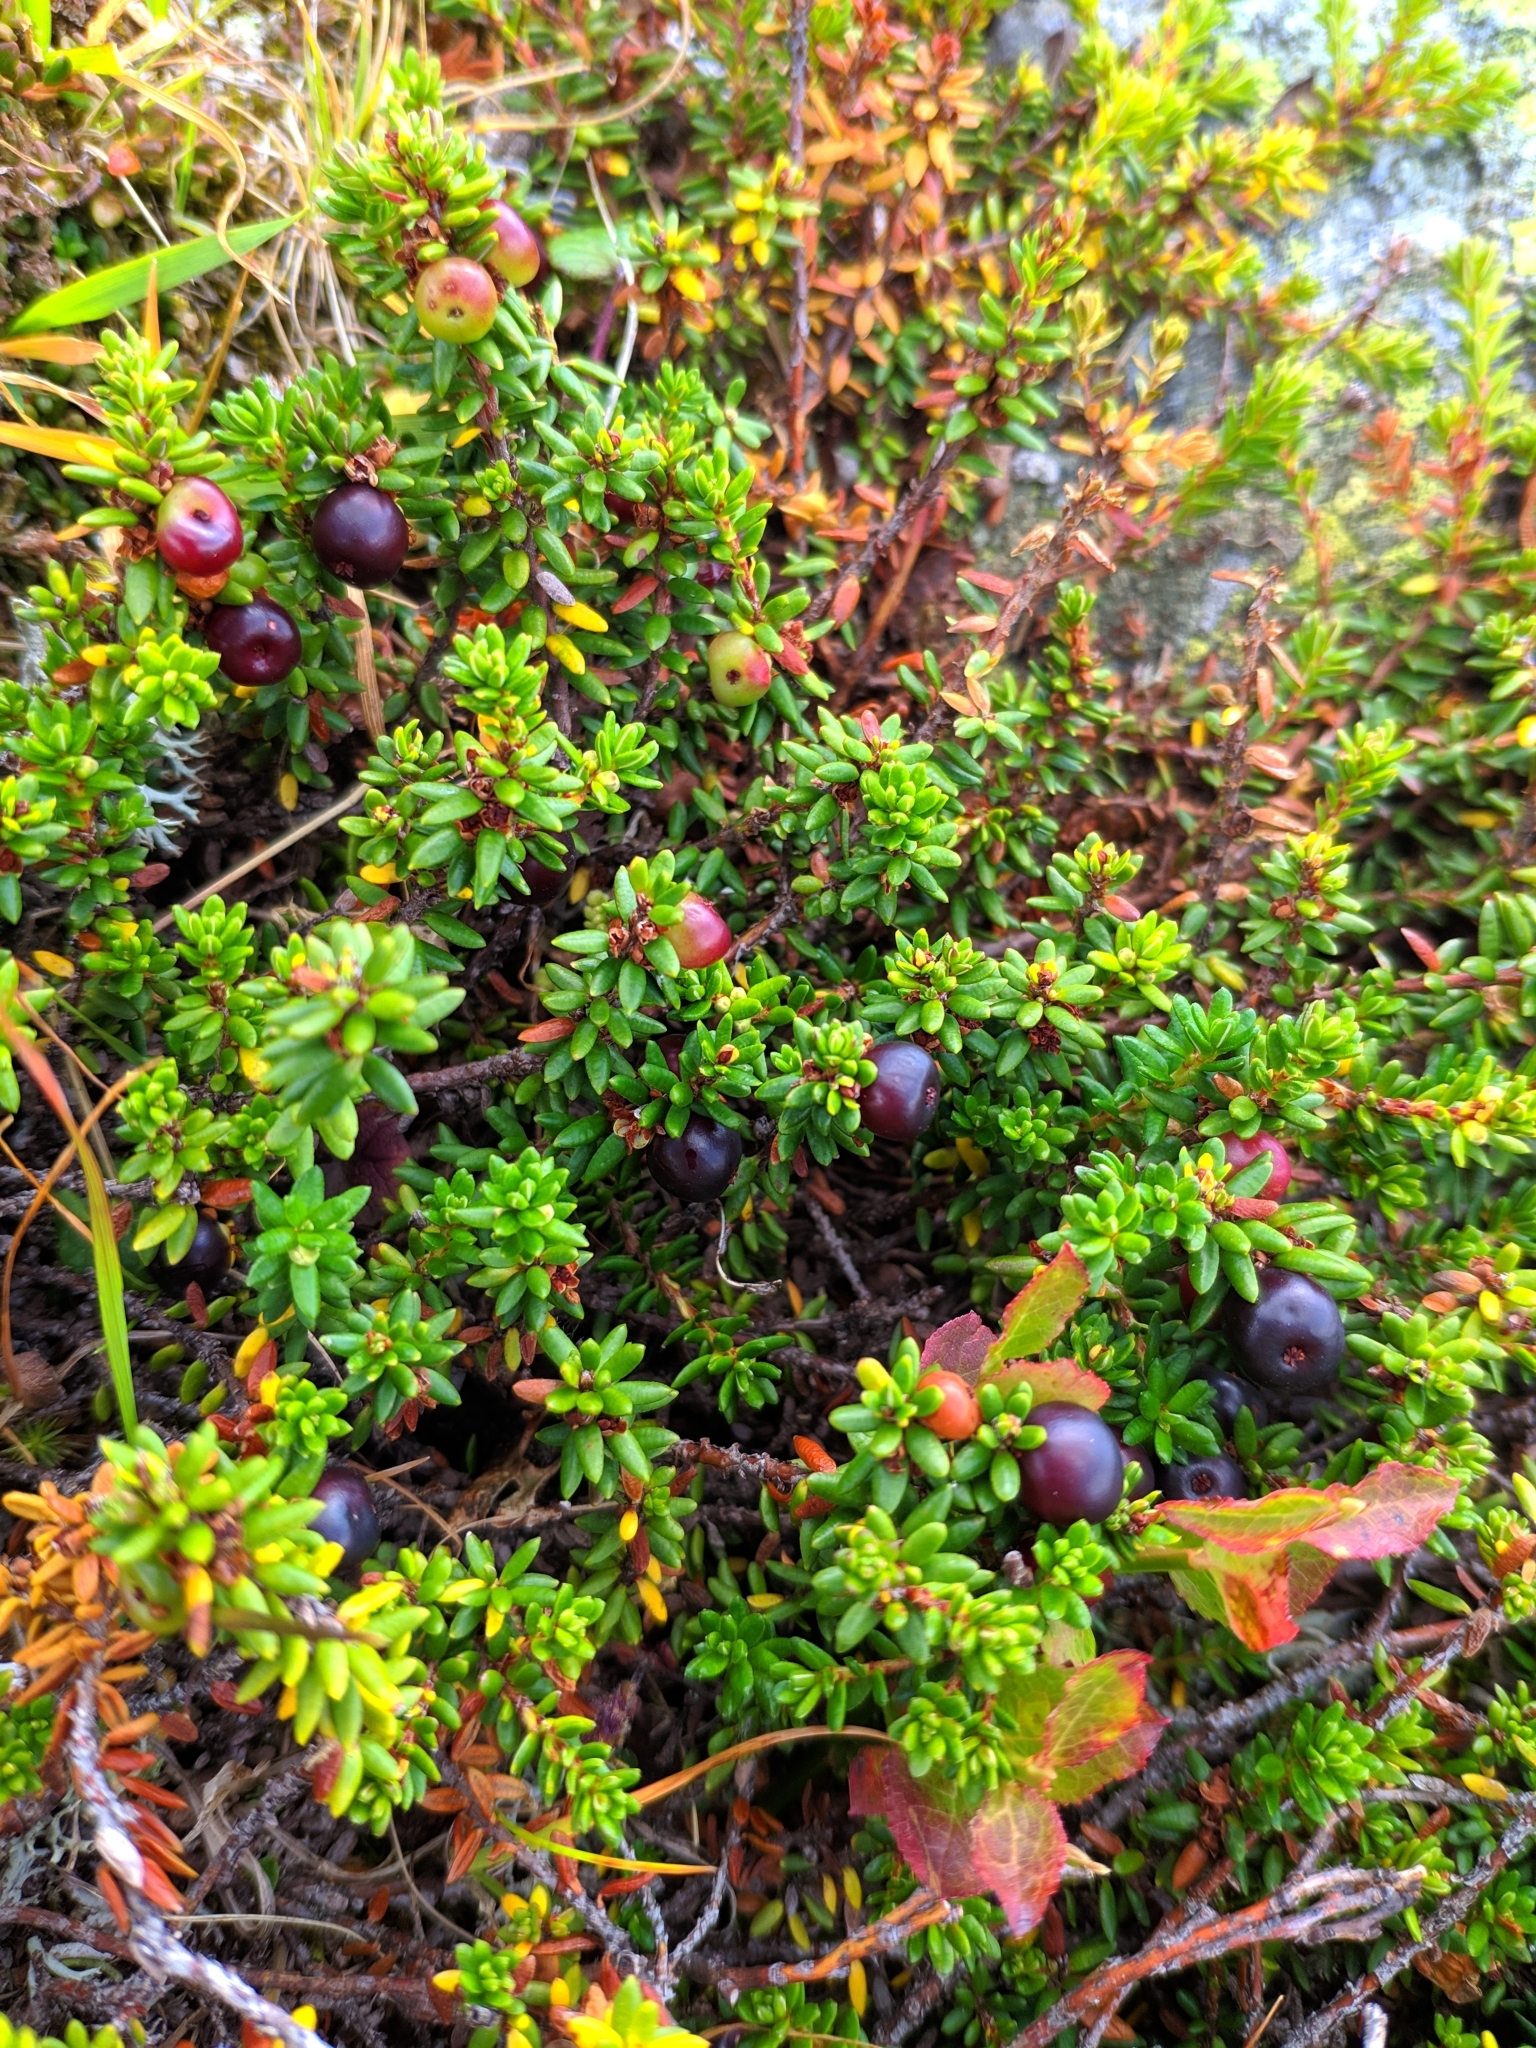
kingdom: Plantae
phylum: Tracheophyta
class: Magnoliopsida
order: Ericales
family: Ericaceae
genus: Empetrum
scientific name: Empetrum nigrum
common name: Black crowberry
